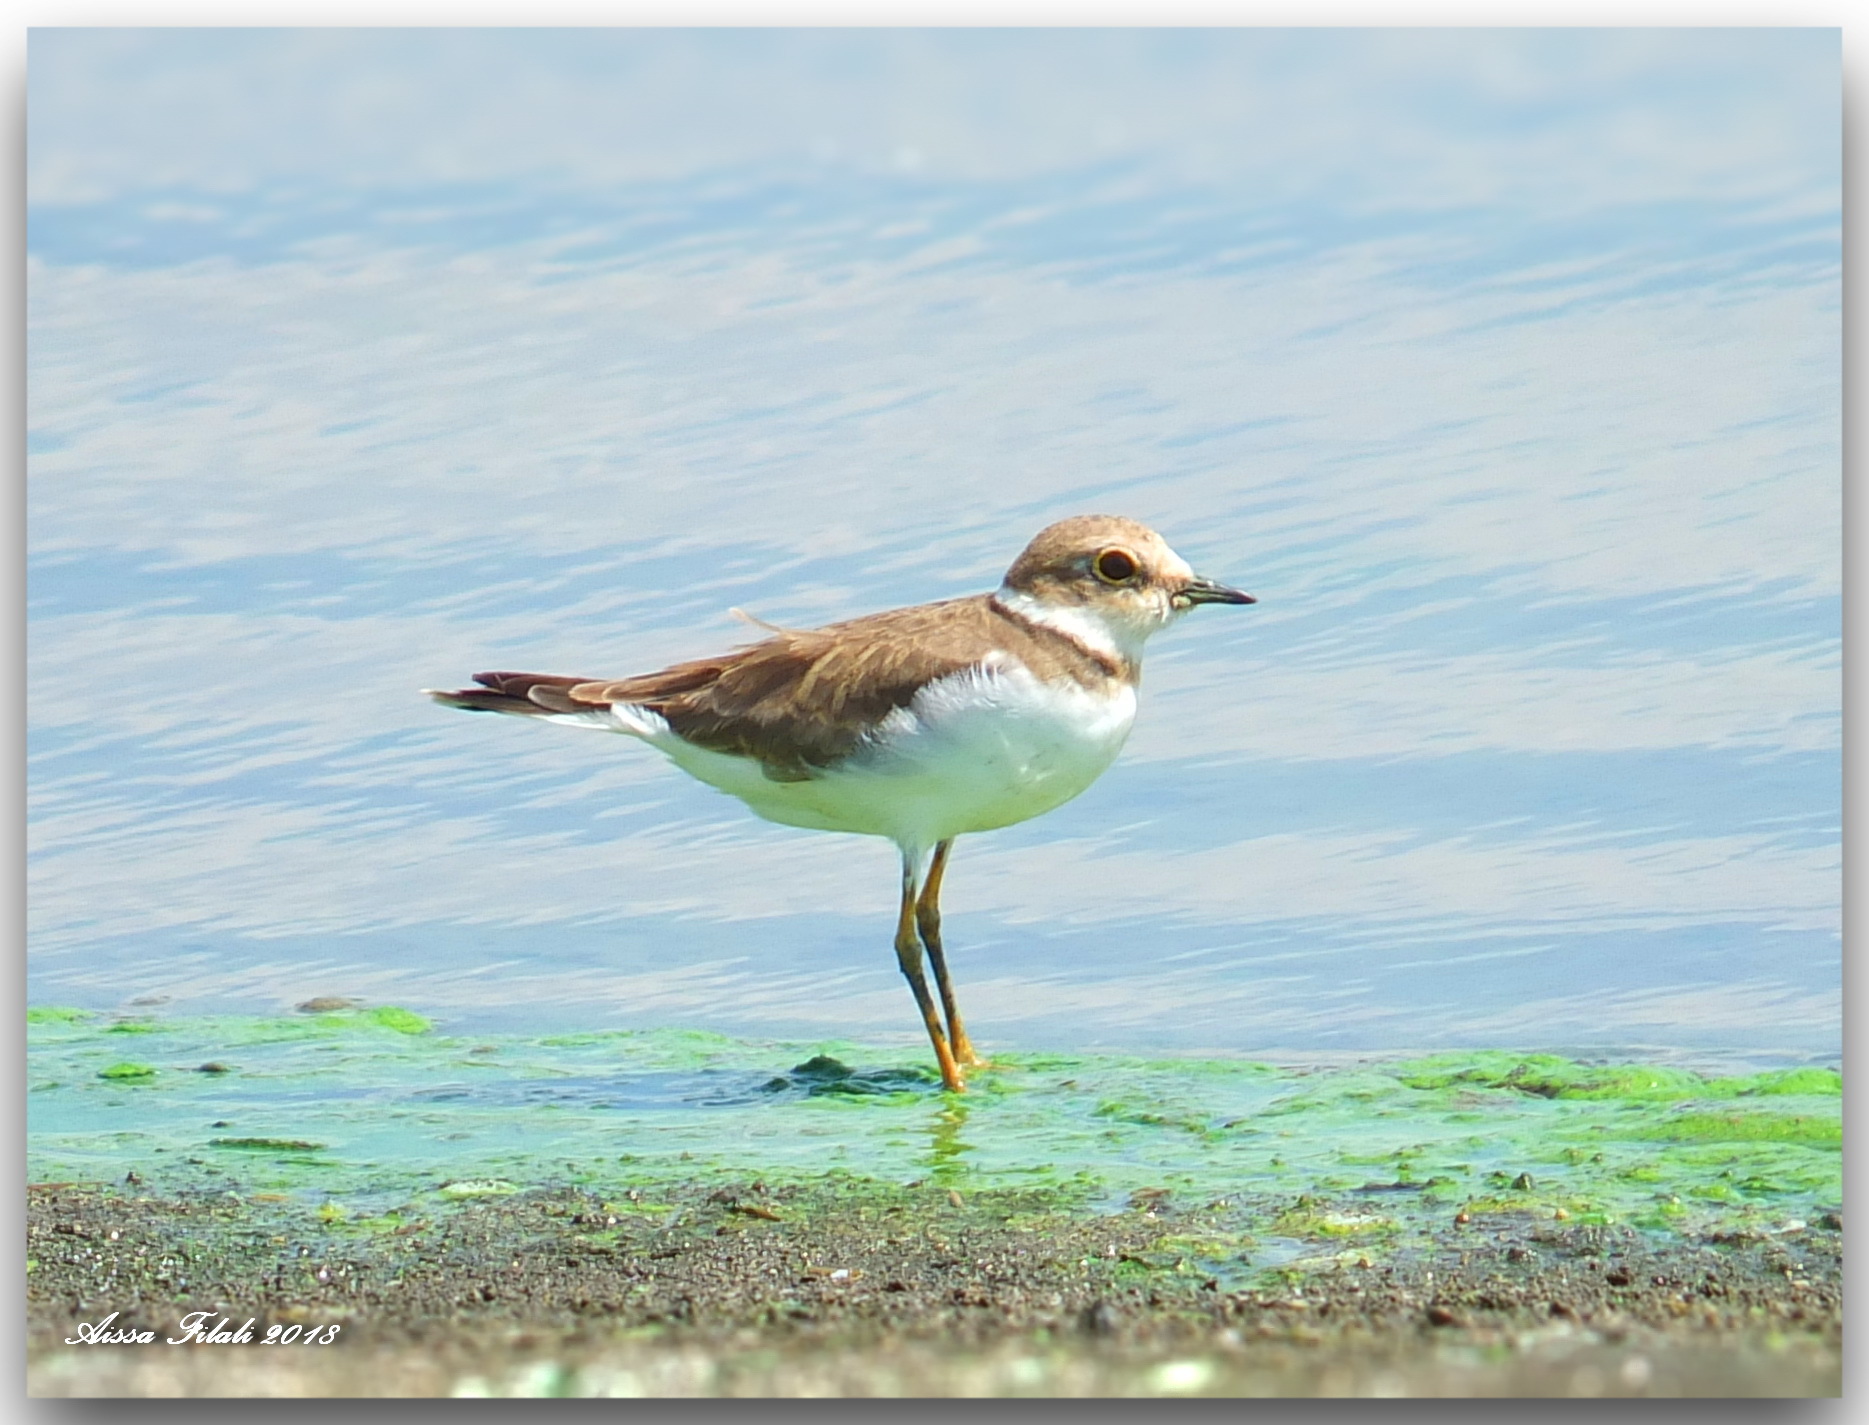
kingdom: Animalia
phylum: Chordata
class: Aves
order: Charadriiformes
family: Charadriidae
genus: Charadrius
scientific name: Charadrius dubius
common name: Little ringed plover
